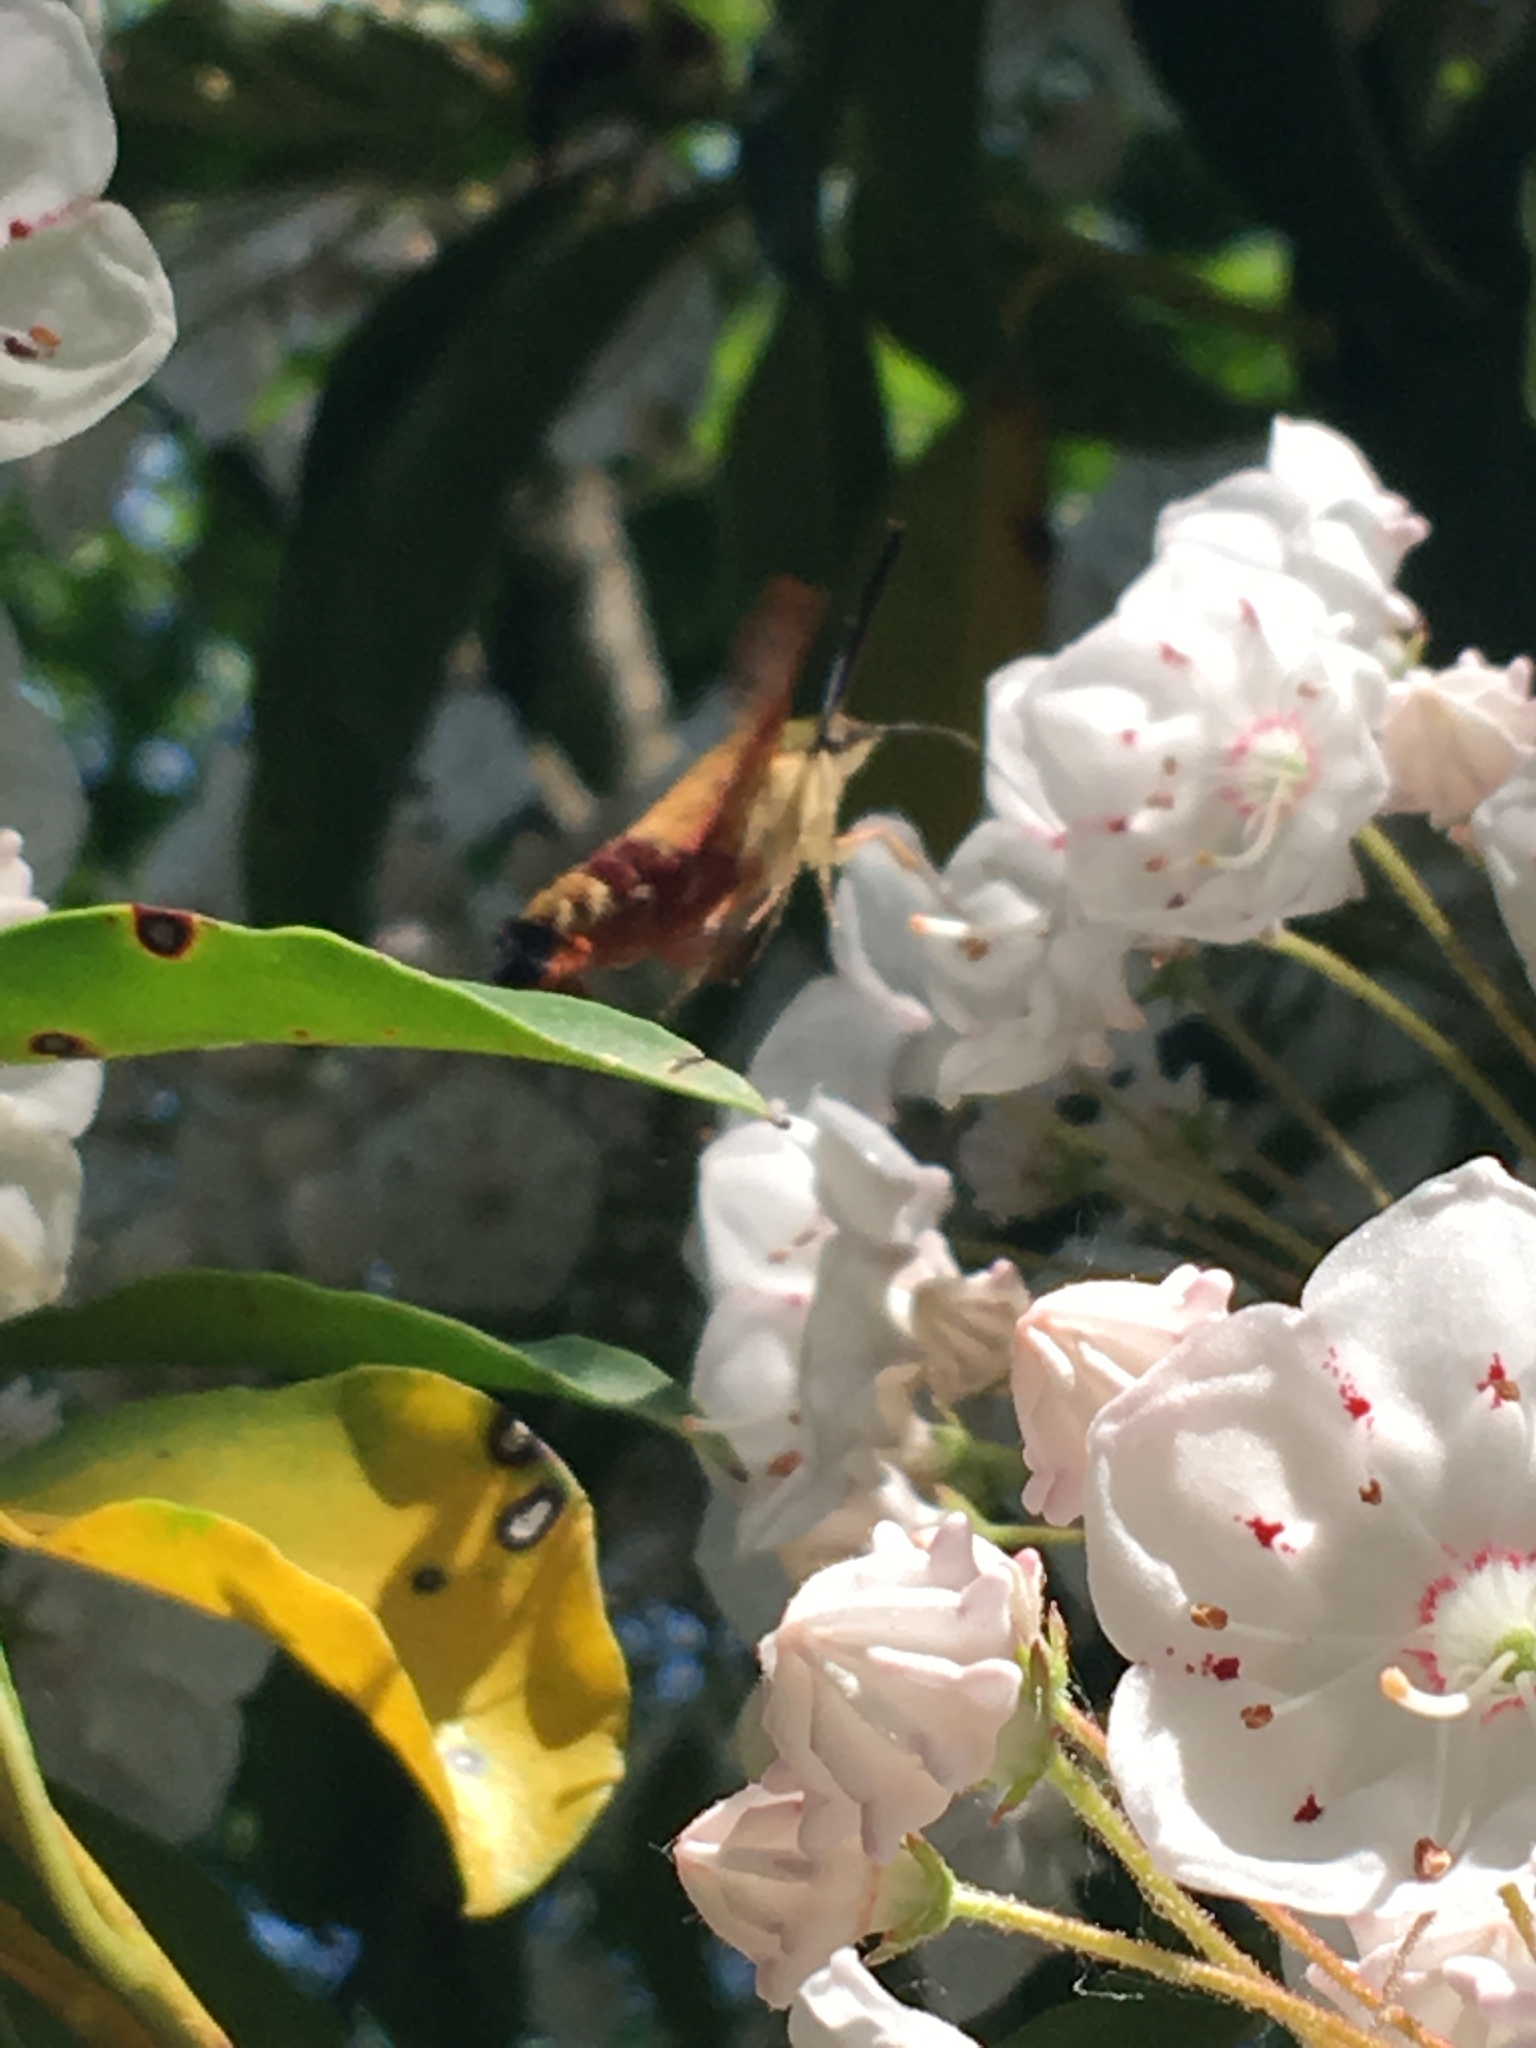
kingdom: Animalia
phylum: Arthropoda
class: Insecta
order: Lepidoptera
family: Sphingidae
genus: Hemaris
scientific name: Hemaris thysbe
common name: Common clear-wing
